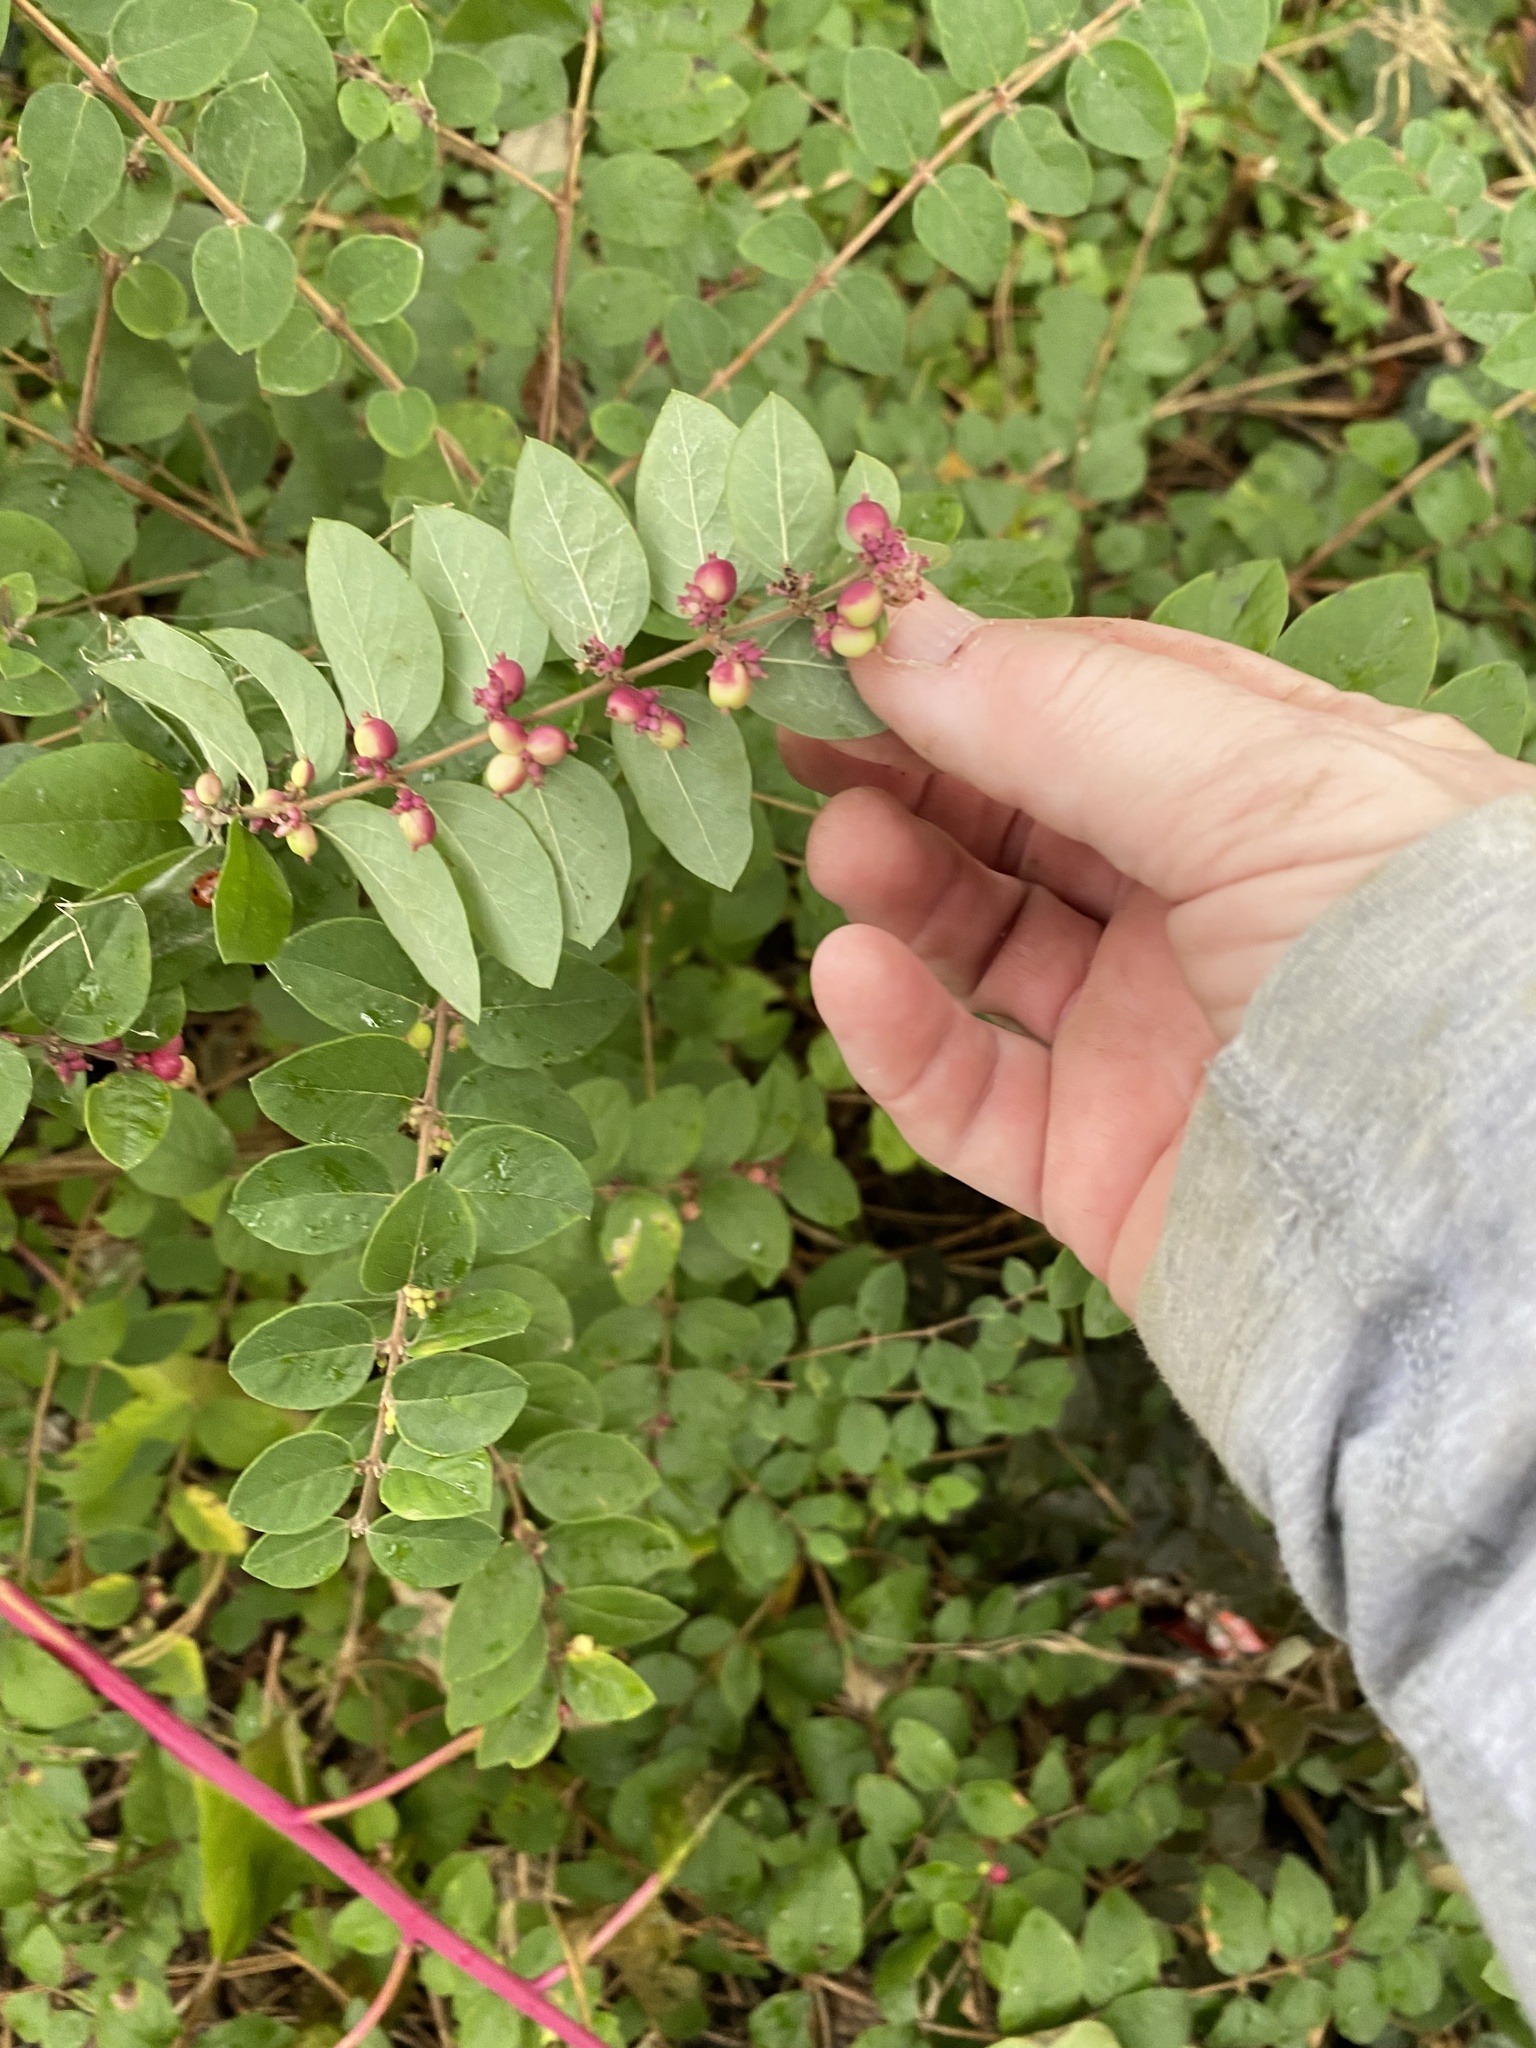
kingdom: Plantae
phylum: Tracheophyta
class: Magnoliopsida
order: Dipsacales
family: Caprifoliaceae
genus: Symphoricarpos
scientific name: Symphoricarpos orbiculatus
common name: Coralberry
